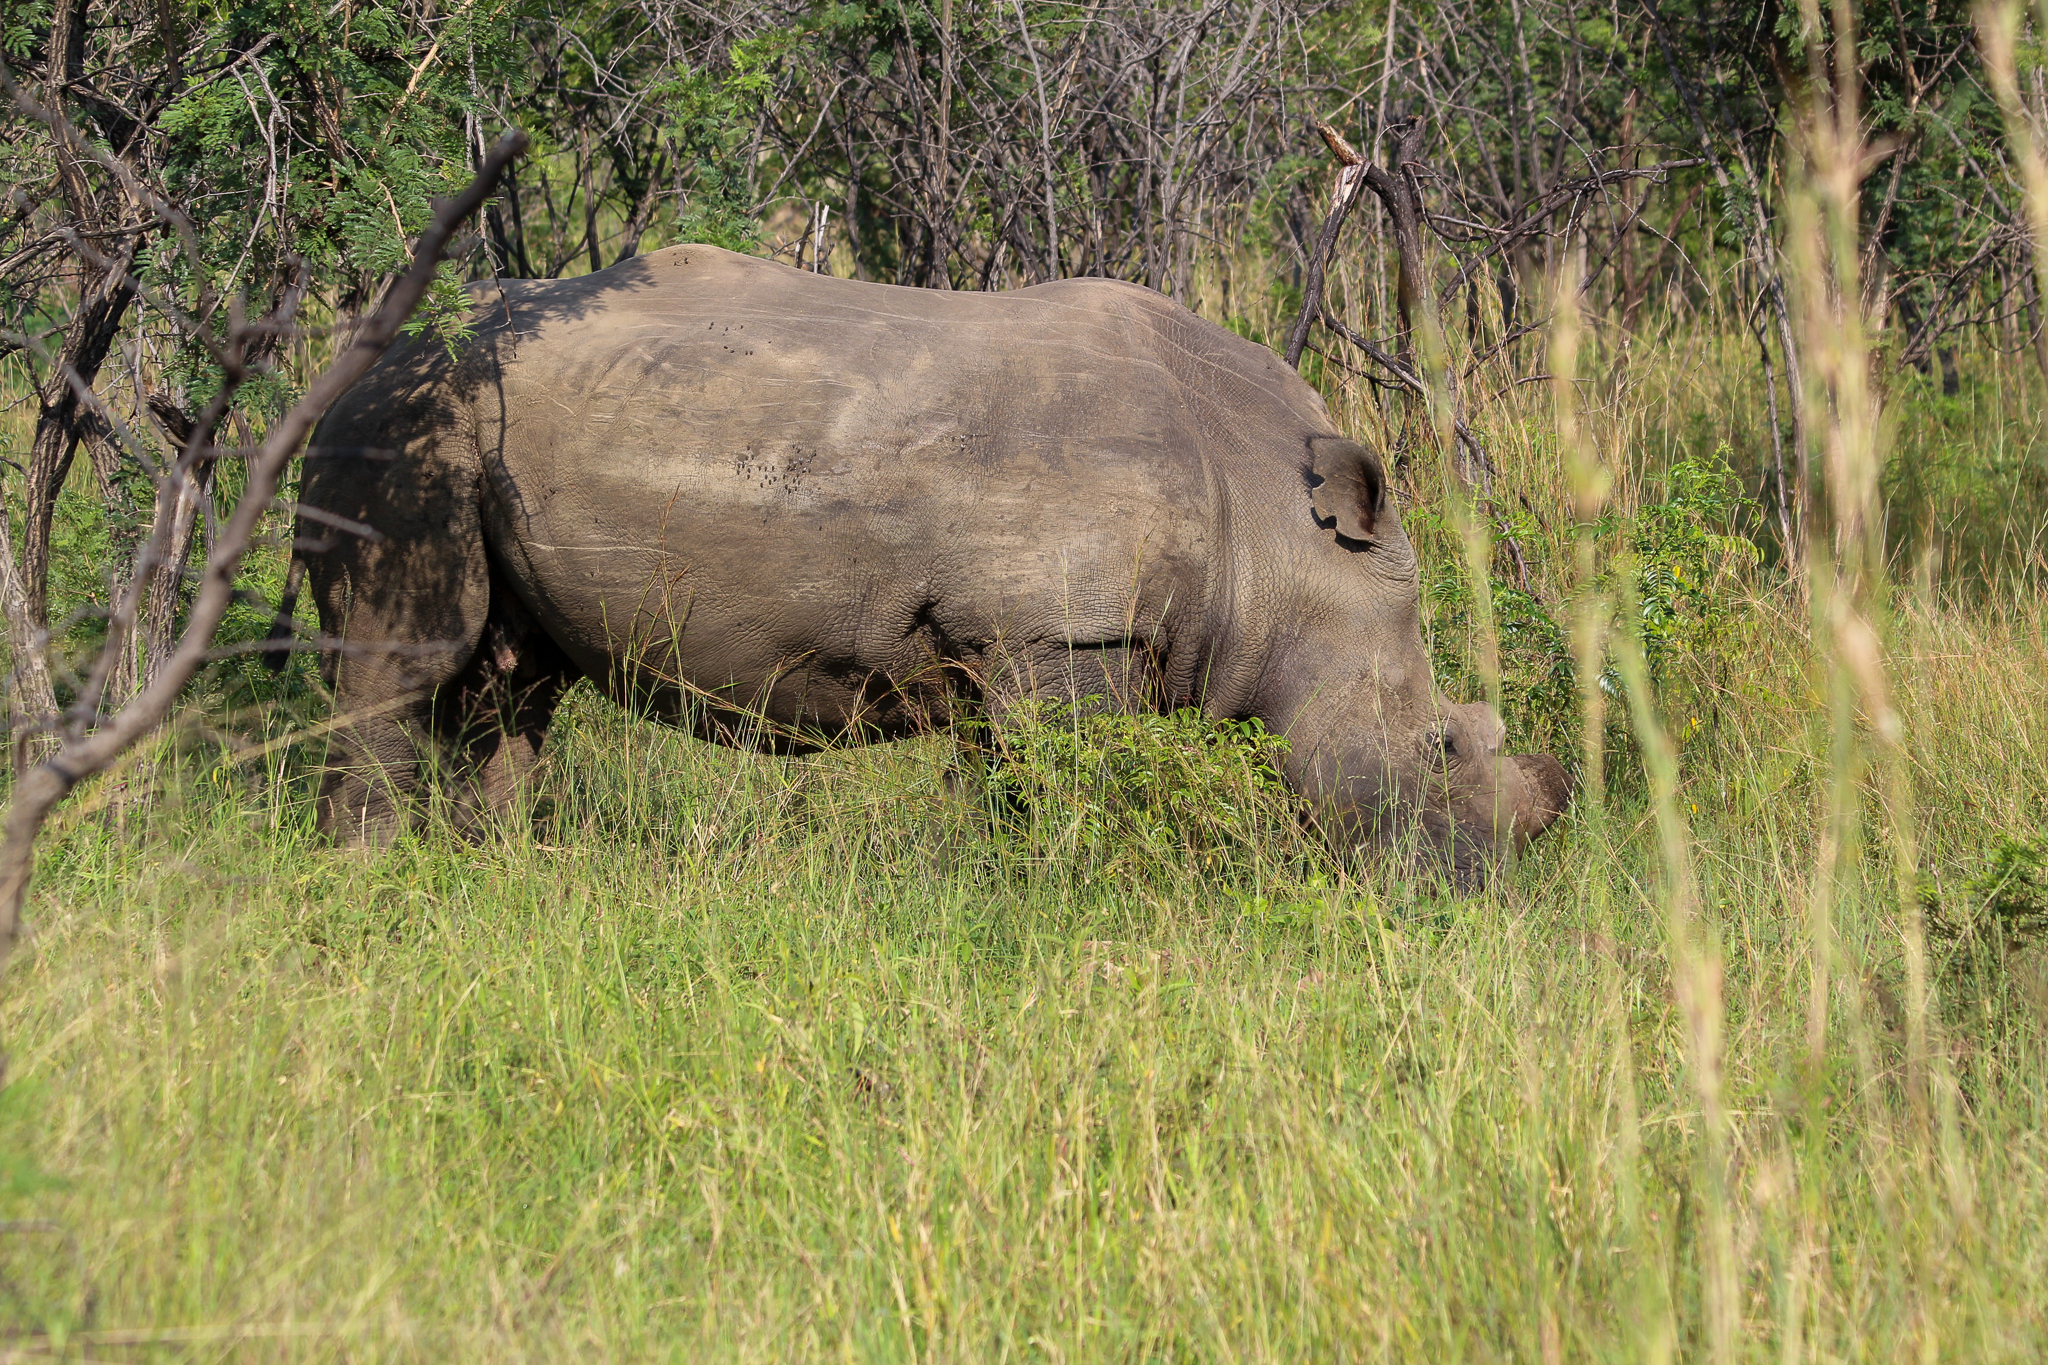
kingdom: Animalia
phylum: Chordata
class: Mammalia
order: Perissodactyla
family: Rhinocerotidae
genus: Ceratotherium
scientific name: Ceratotherium simum
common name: White rhinoceros
